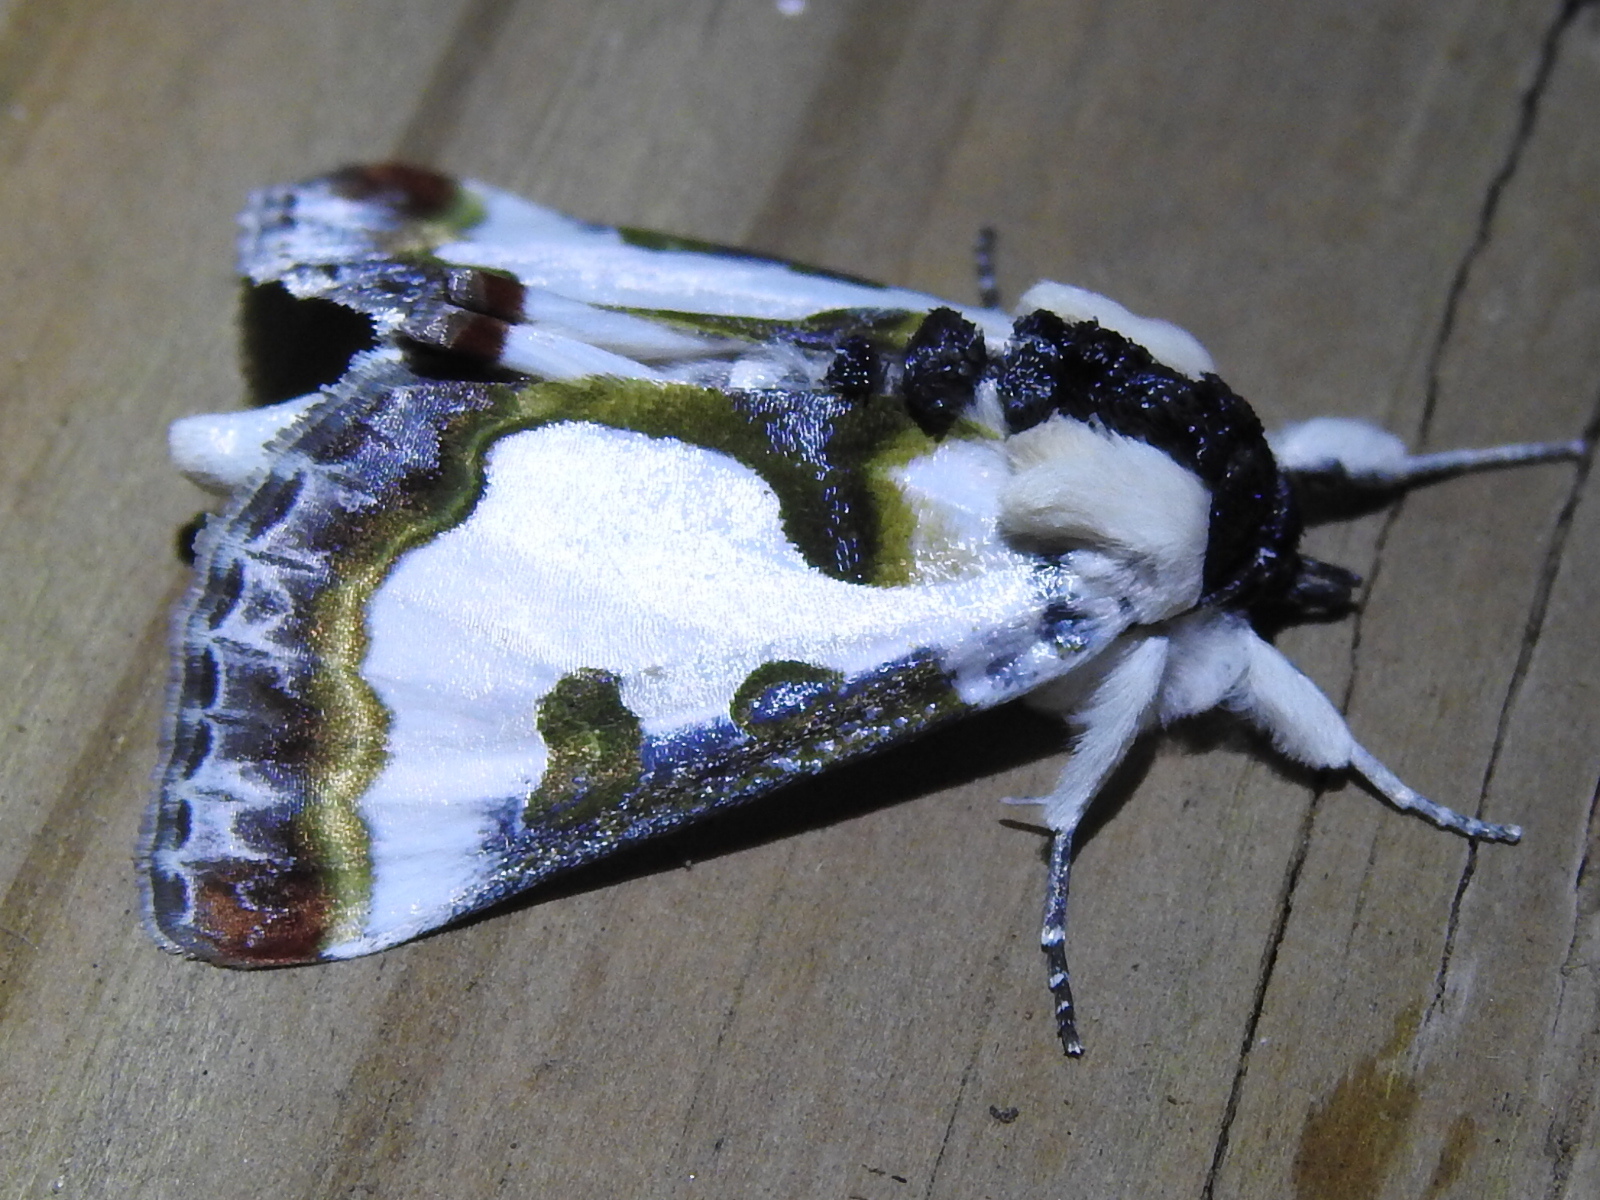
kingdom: Animalia
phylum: Arthropoda
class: Insecta
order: Lepidoptera
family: Noctuidae
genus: Xerociris
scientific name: Xerociris wilsonii
